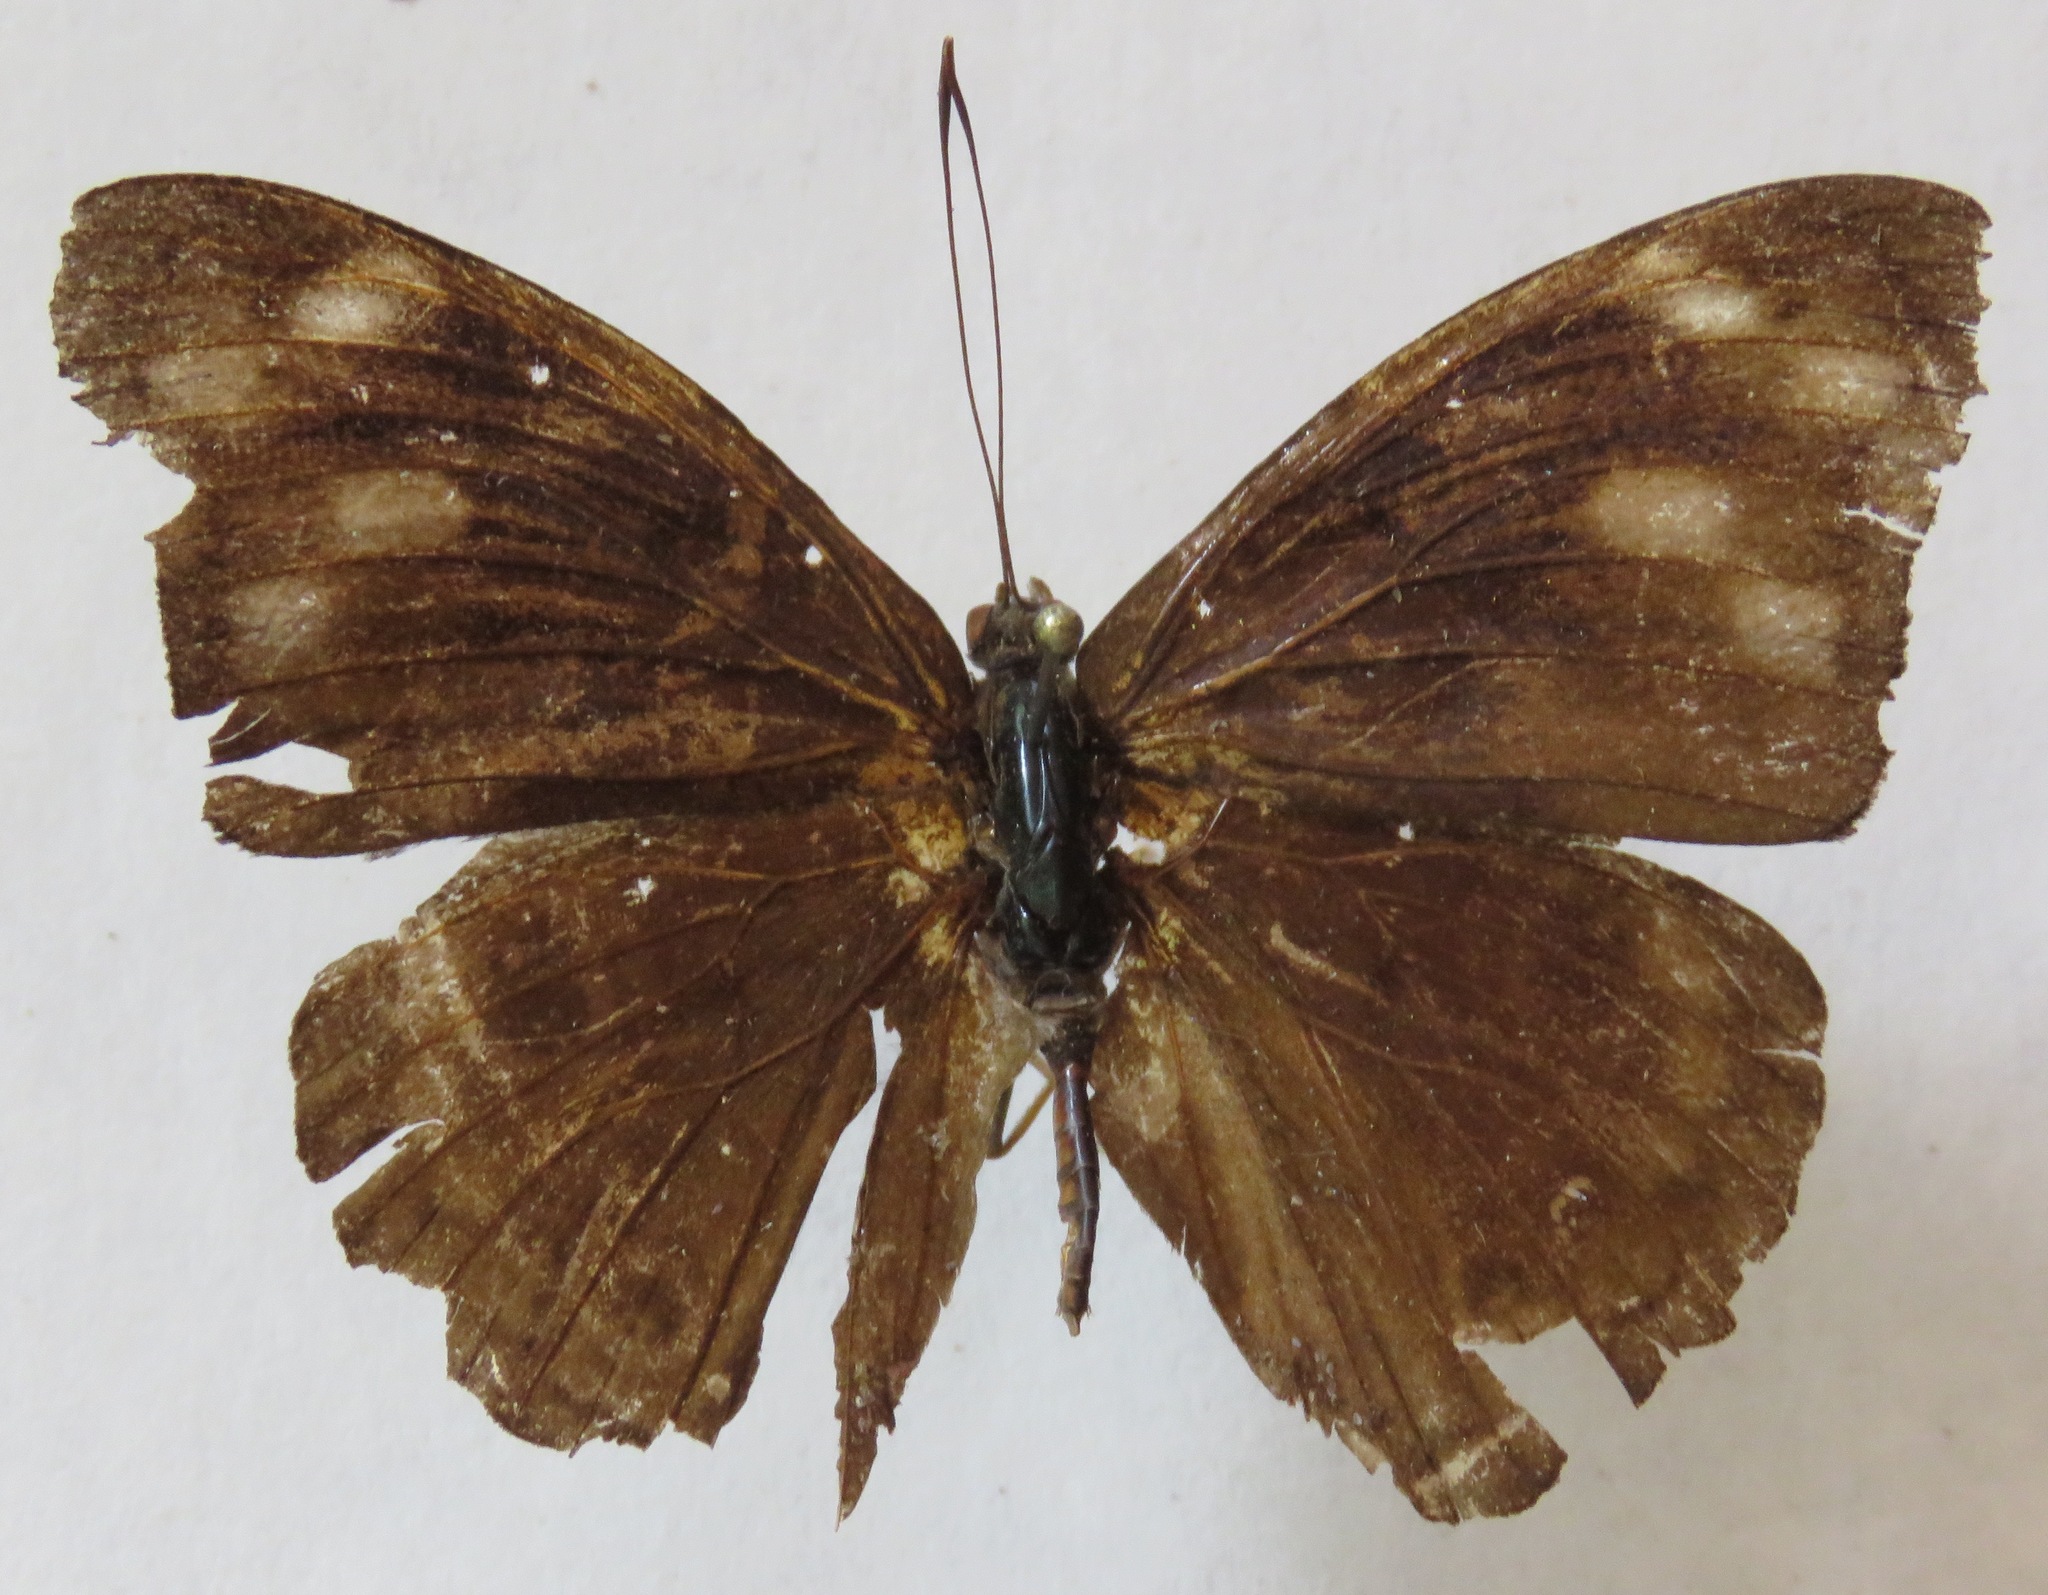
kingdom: Animalia
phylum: Arthropoda
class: Insecta
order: Lepidoptera
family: Nymphalidae
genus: Eunica
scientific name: Eunica malvina
